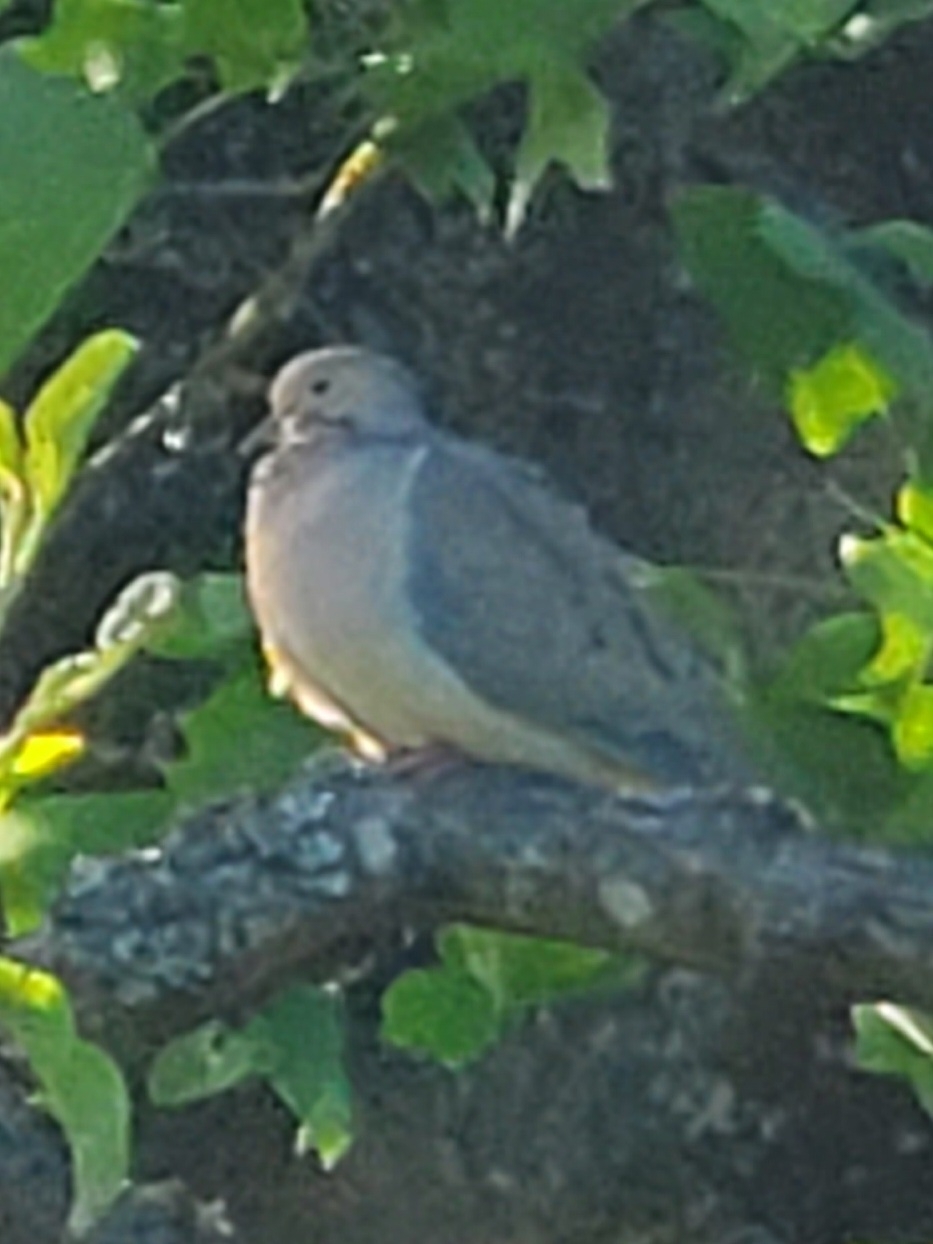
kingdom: Animalia
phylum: Chordata
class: Aves
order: Columbiformes
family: Columbidae
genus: Zenaida
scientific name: Zenaida macroura
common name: Mourning dove
